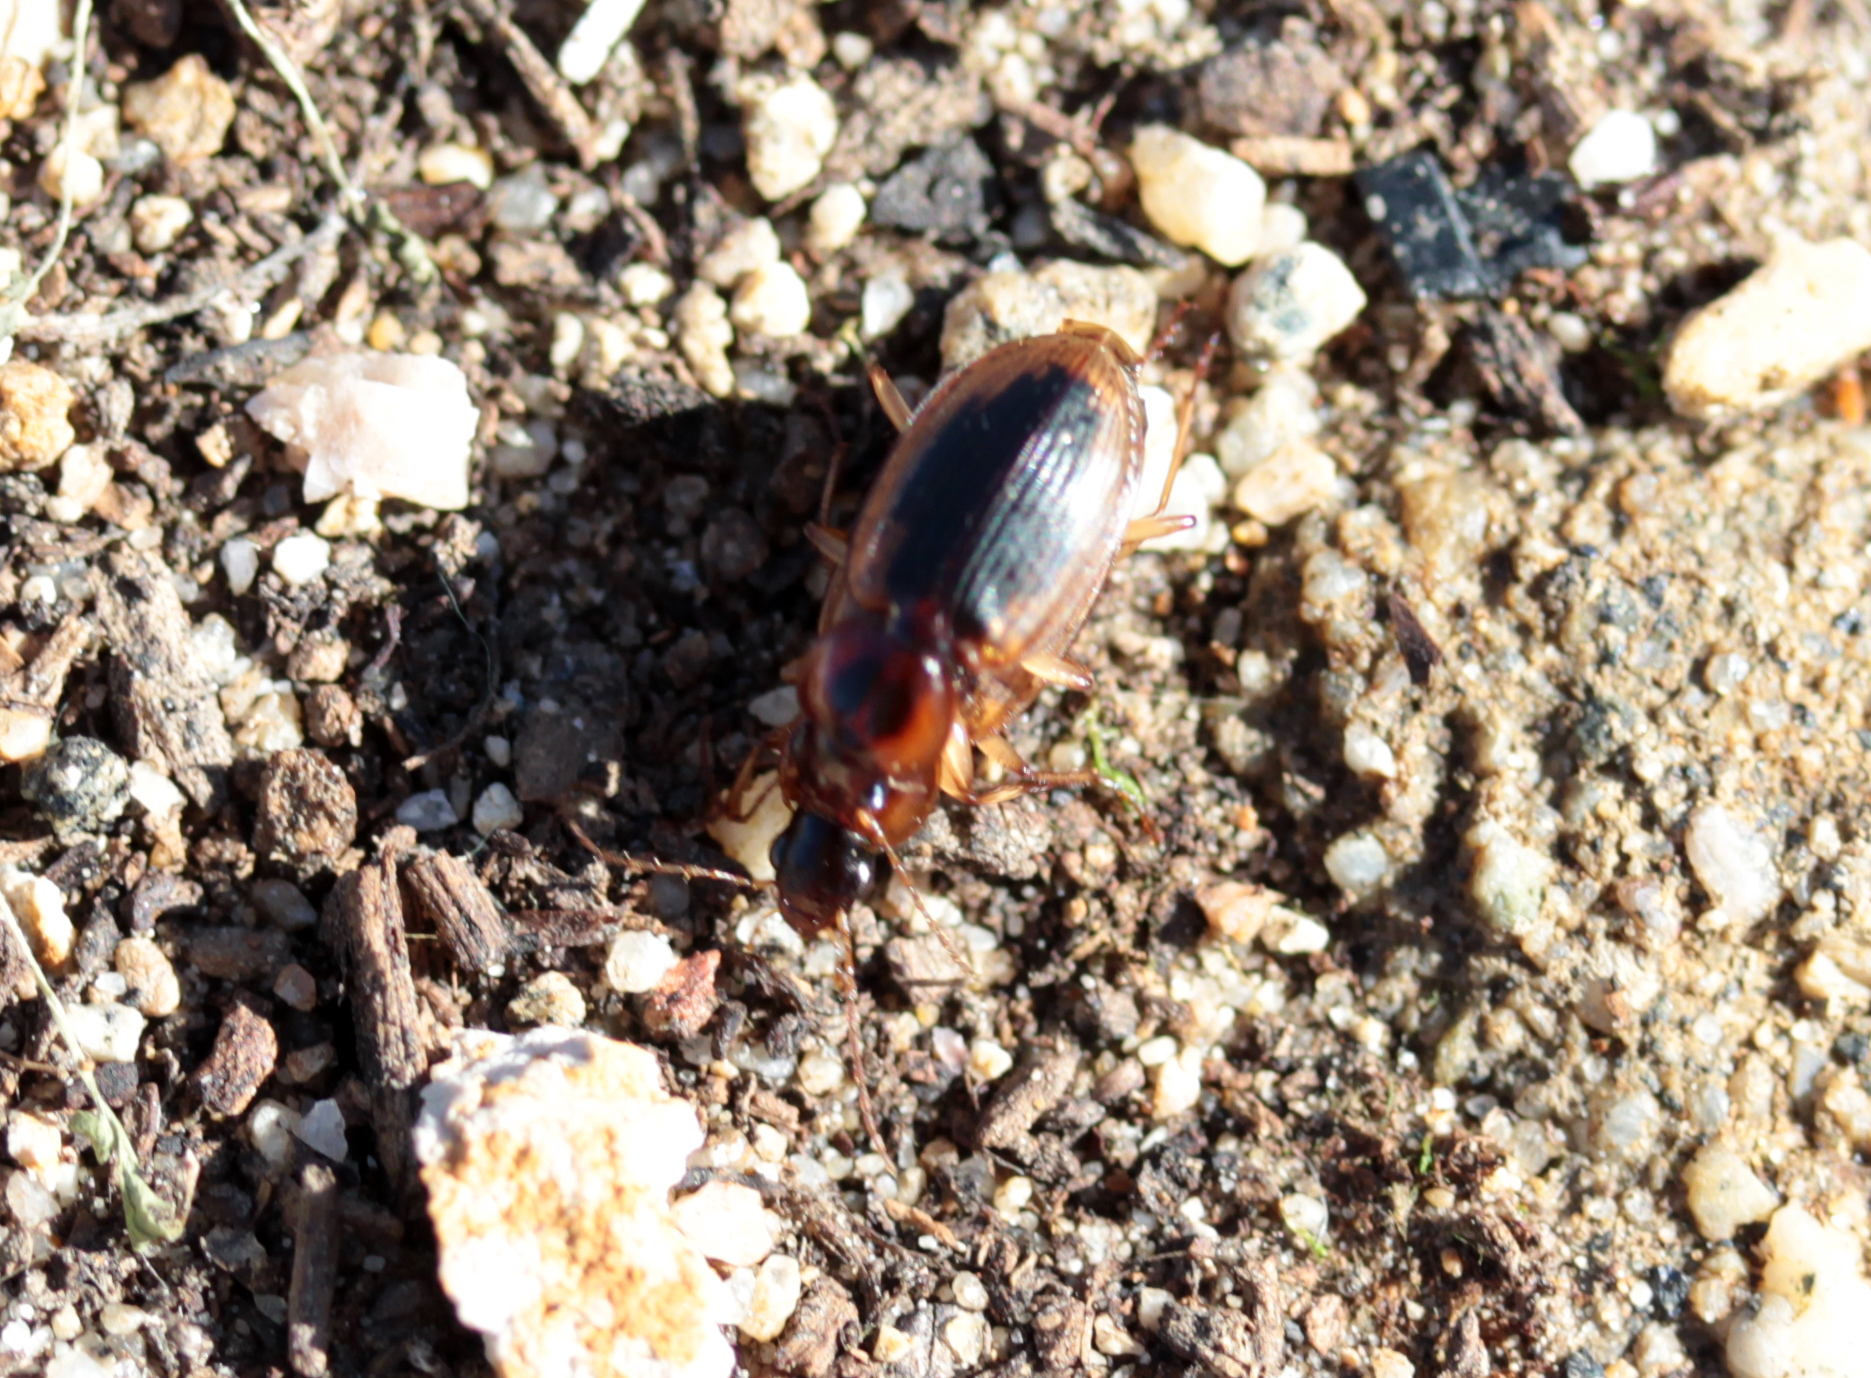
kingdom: Animalia
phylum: Arthropoda
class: Insecta
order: Coleoptera
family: Carabidae
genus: Tanystoma
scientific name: Tanystoma maculicolle
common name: Tule beetle
